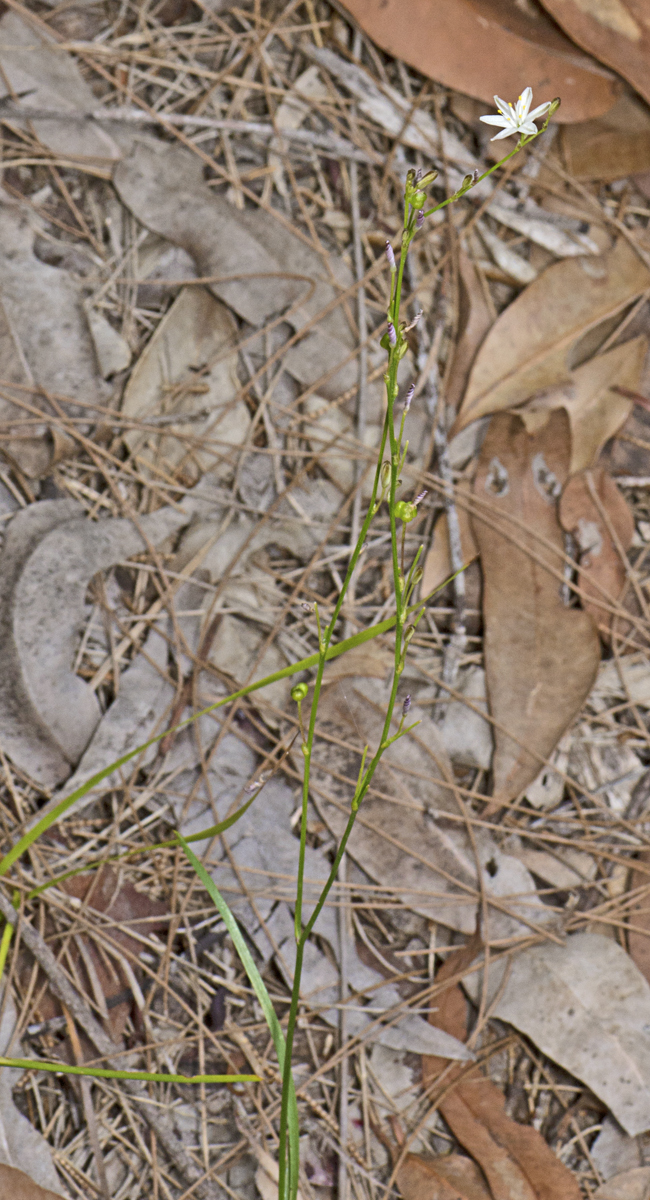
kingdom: Plantae
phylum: Tracheophyta
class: Liliopsida
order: Asparagales
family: Asphodelaceae
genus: Caesia
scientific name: Caesia parviflora
